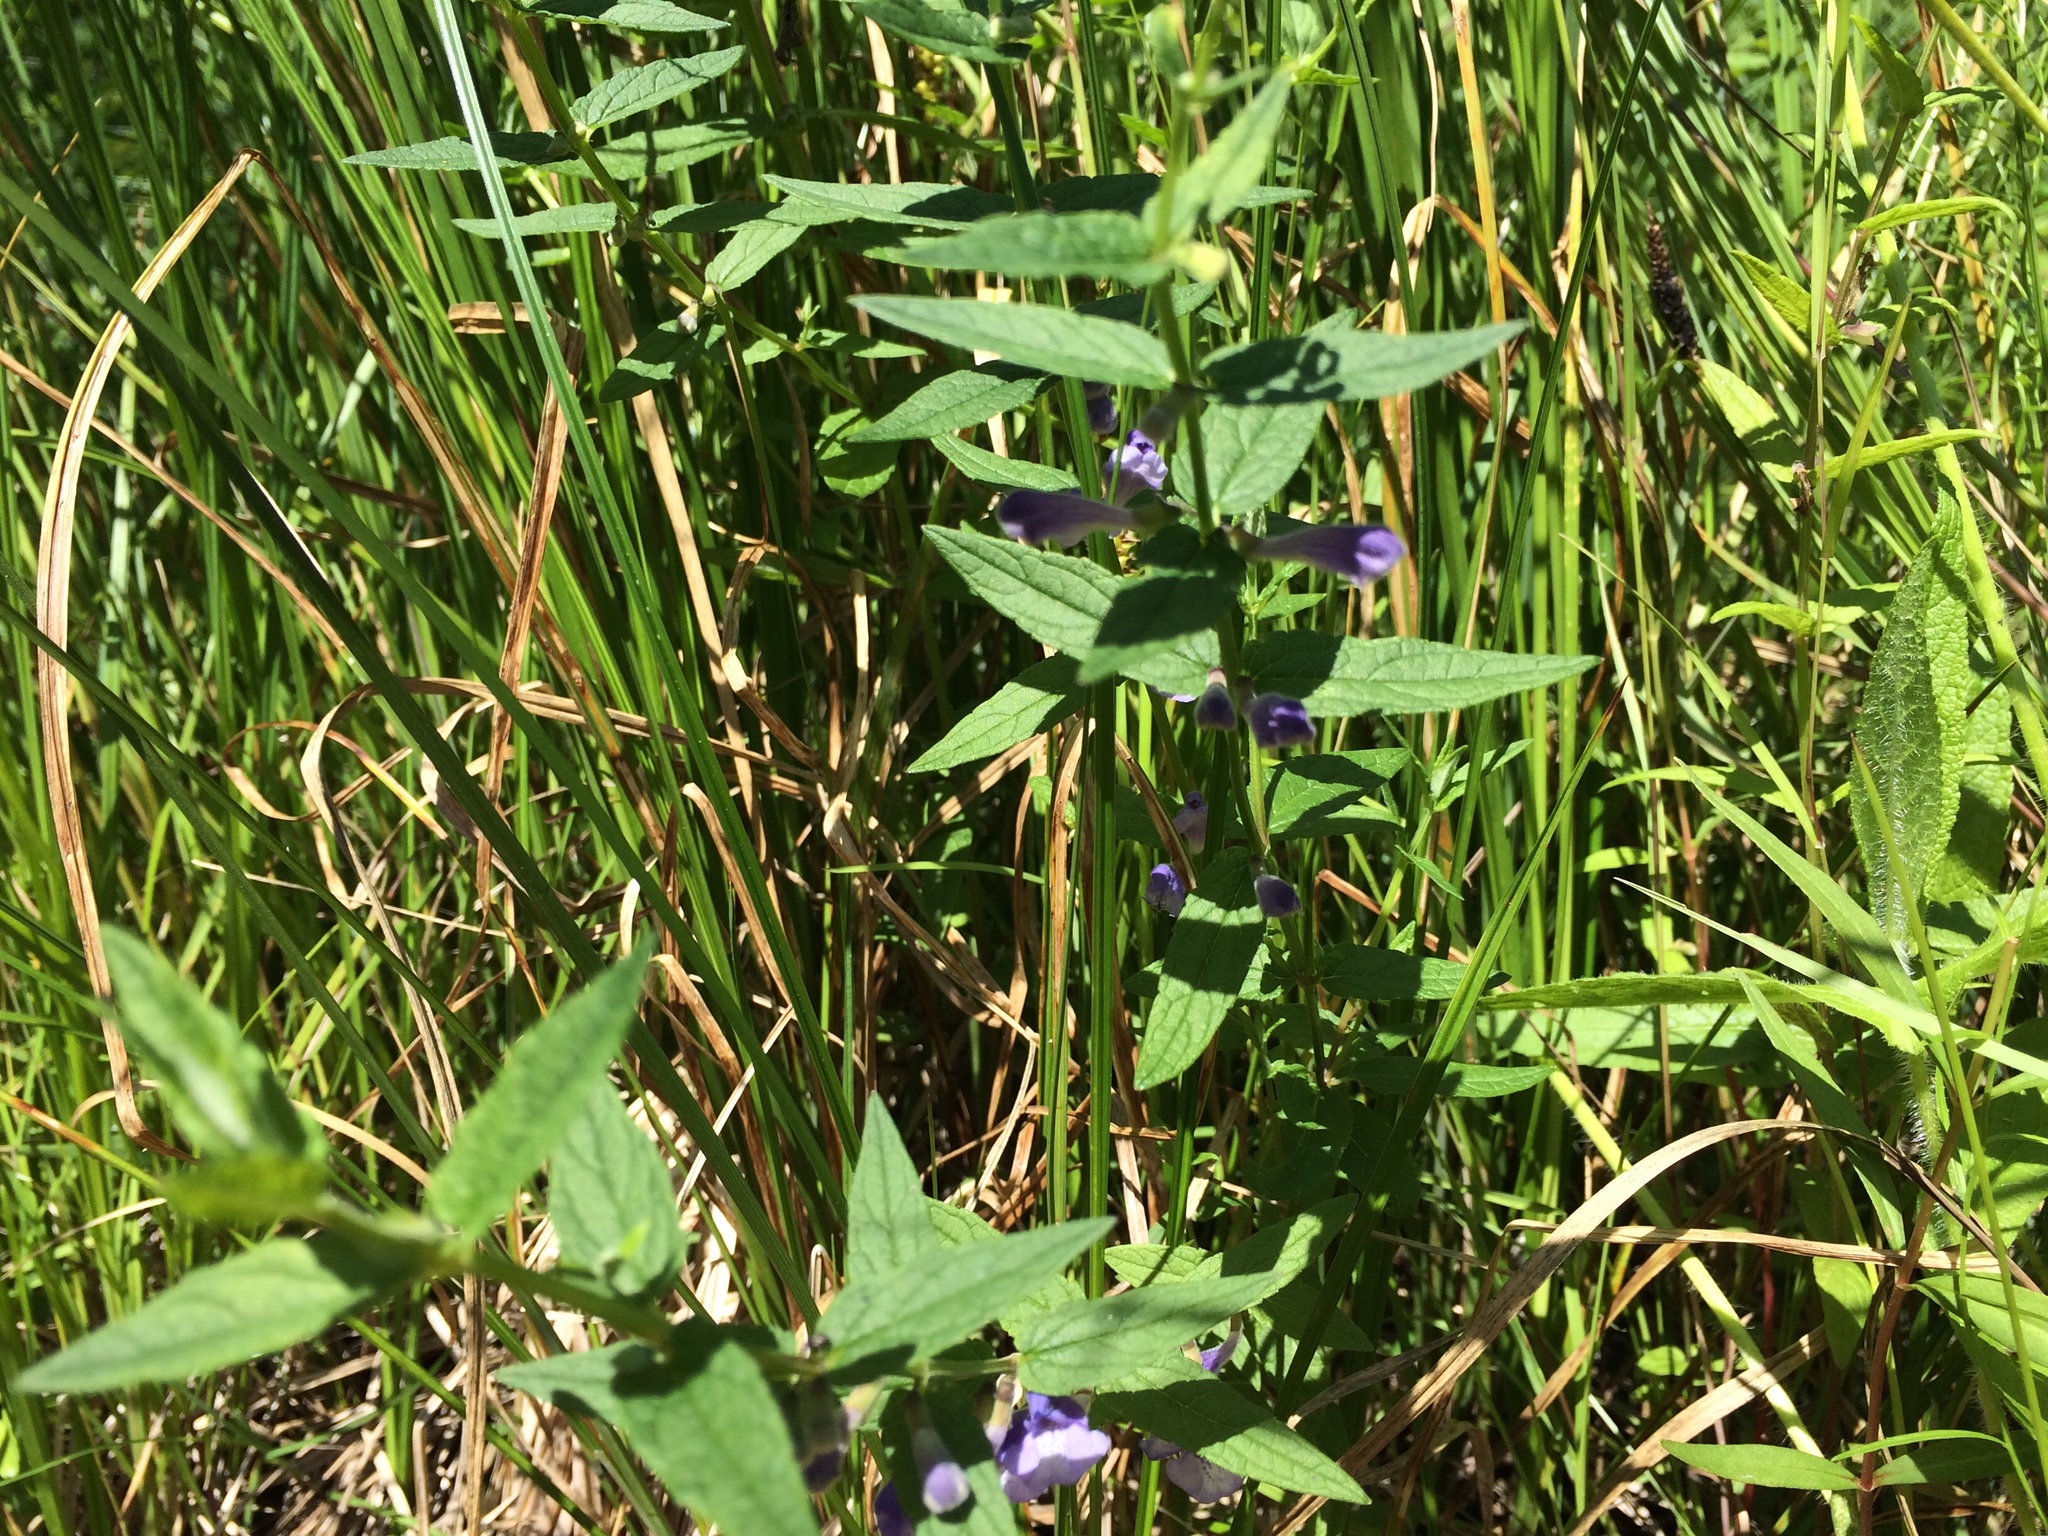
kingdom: Plantae
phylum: Tracheophyta
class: Magnoliopsida
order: Lamiales
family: Lamiaceae
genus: Scutellaria
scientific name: Scutellaria galericulata
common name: Skullcap
